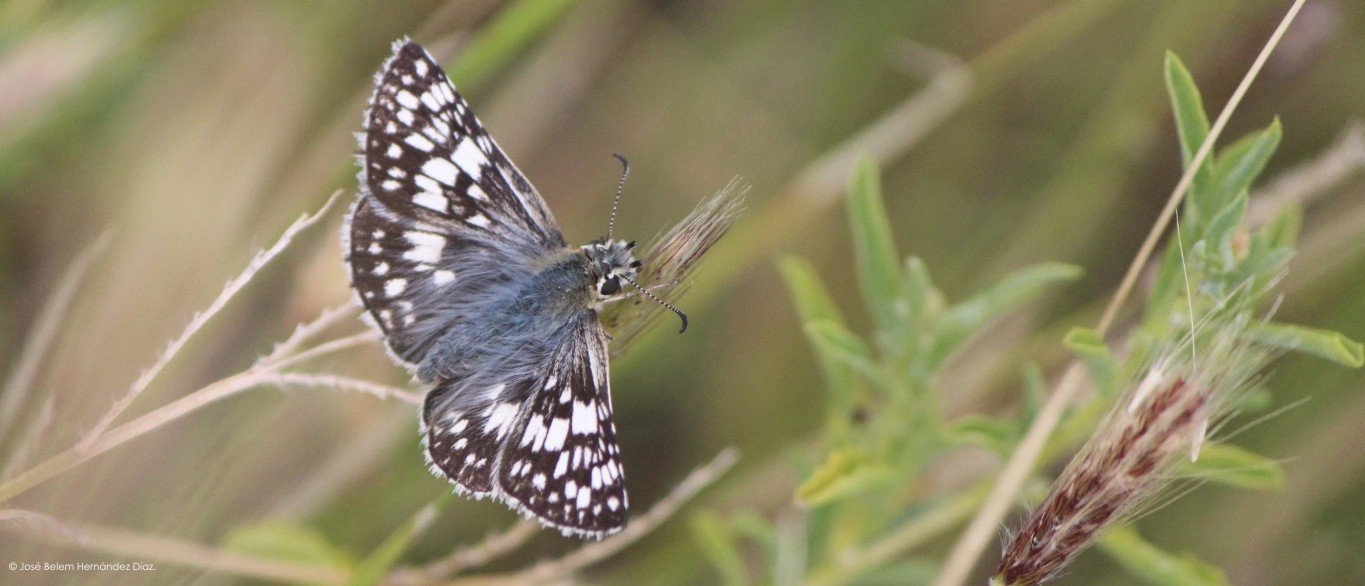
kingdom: Animalia
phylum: Arthropoda
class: Insecta
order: Lepidoptera
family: Hesperiidae
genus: Pyrgus
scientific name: Pyrgus oileus
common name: Tropical checkered-skipper
